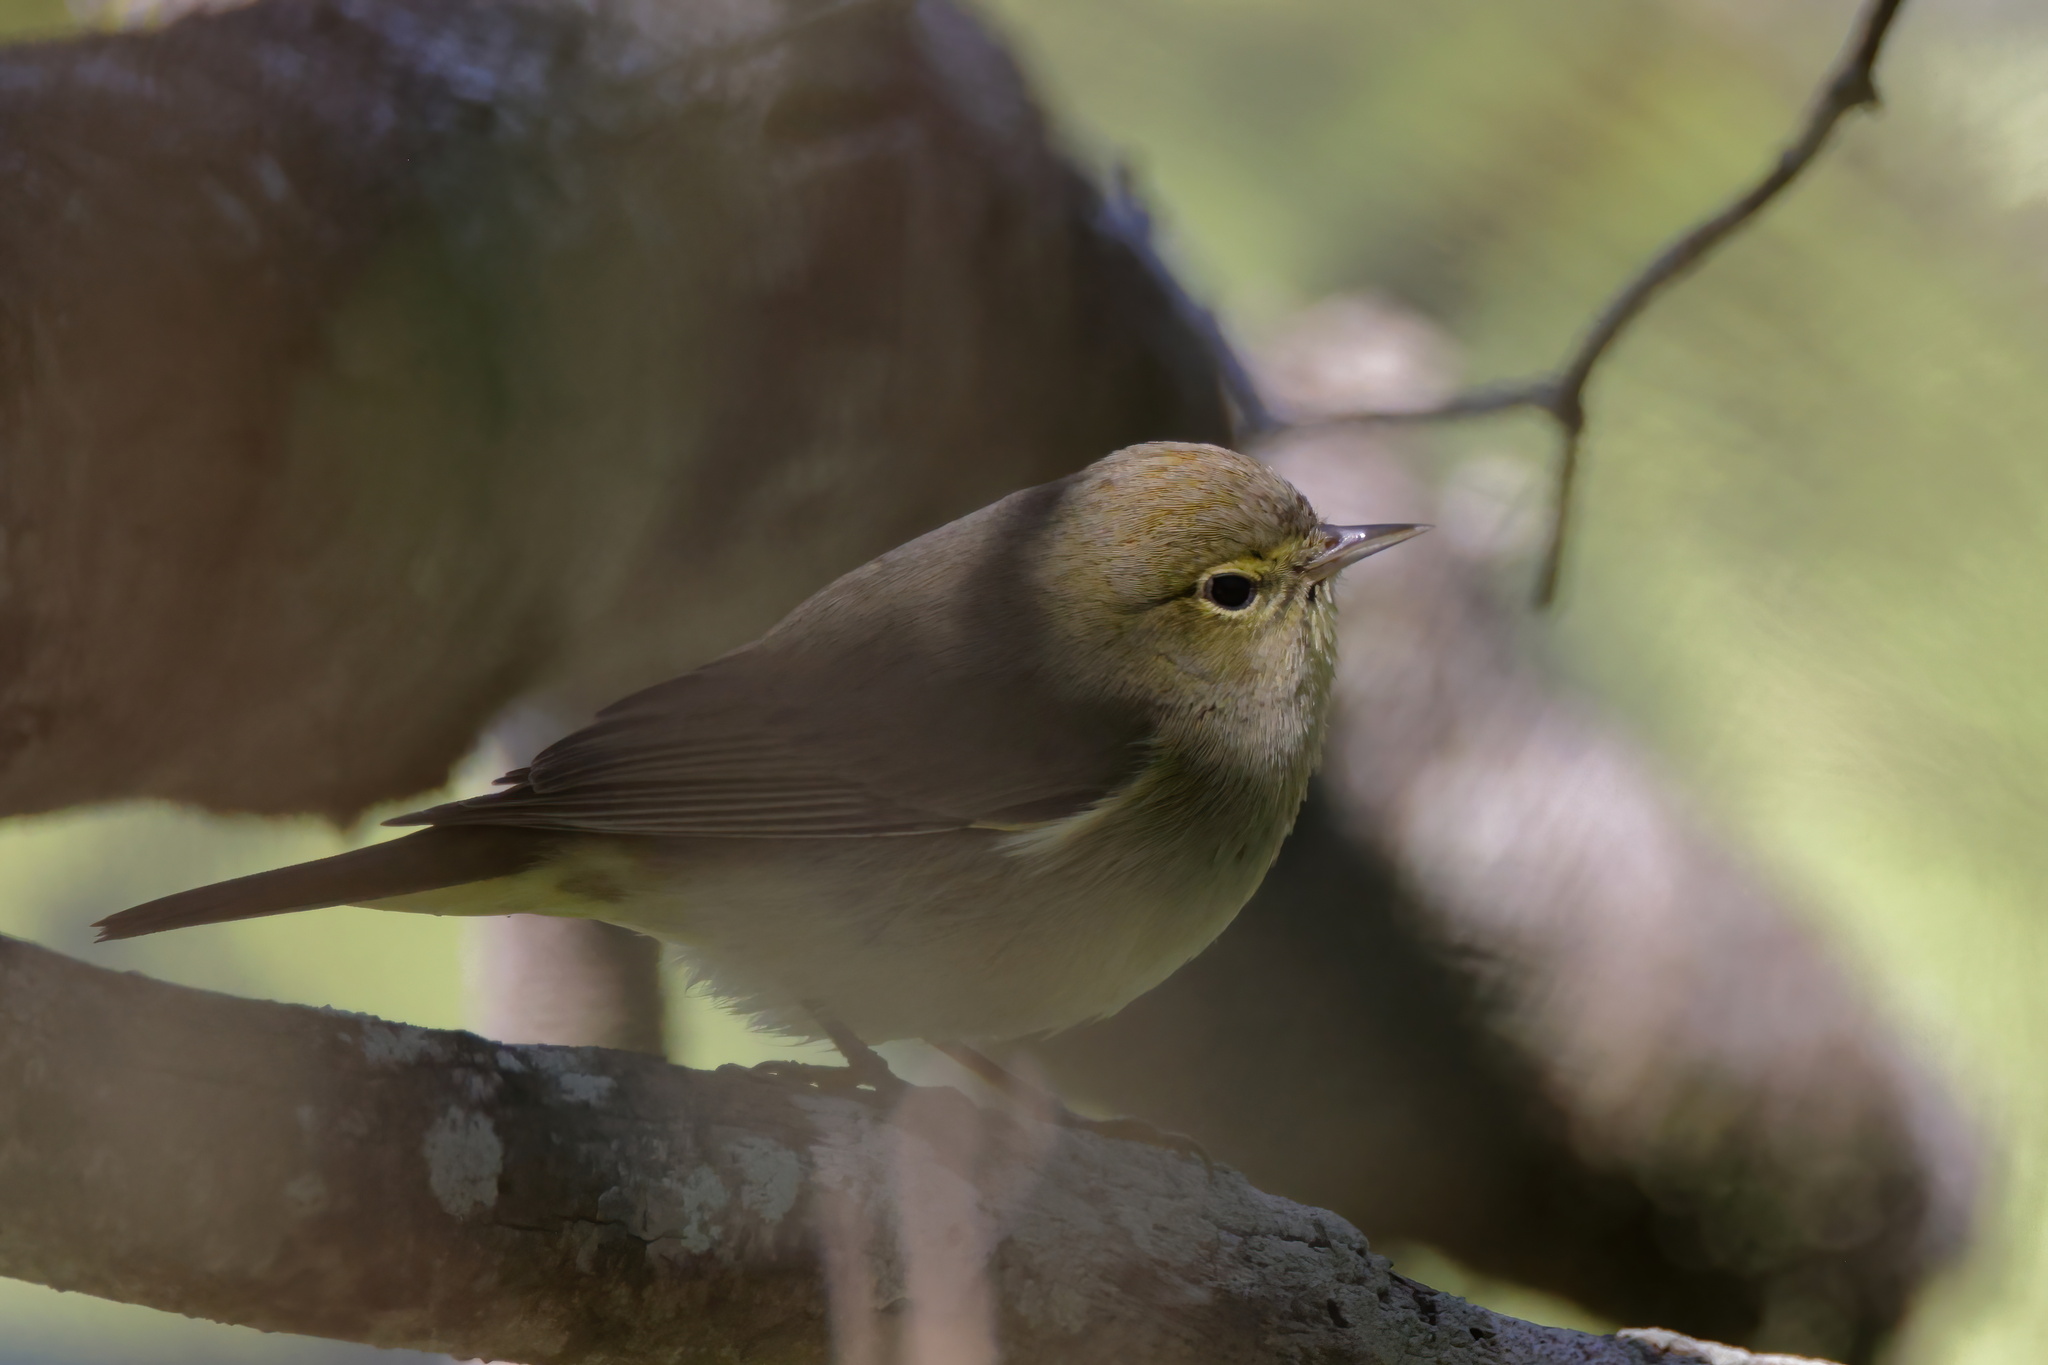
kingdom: Animalia
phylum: Chordata
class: Aves
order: Passeriformes
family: Parulidae
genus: Leiothlypis
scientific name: Leiothlypis celata
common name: Orange-crowned warbler
